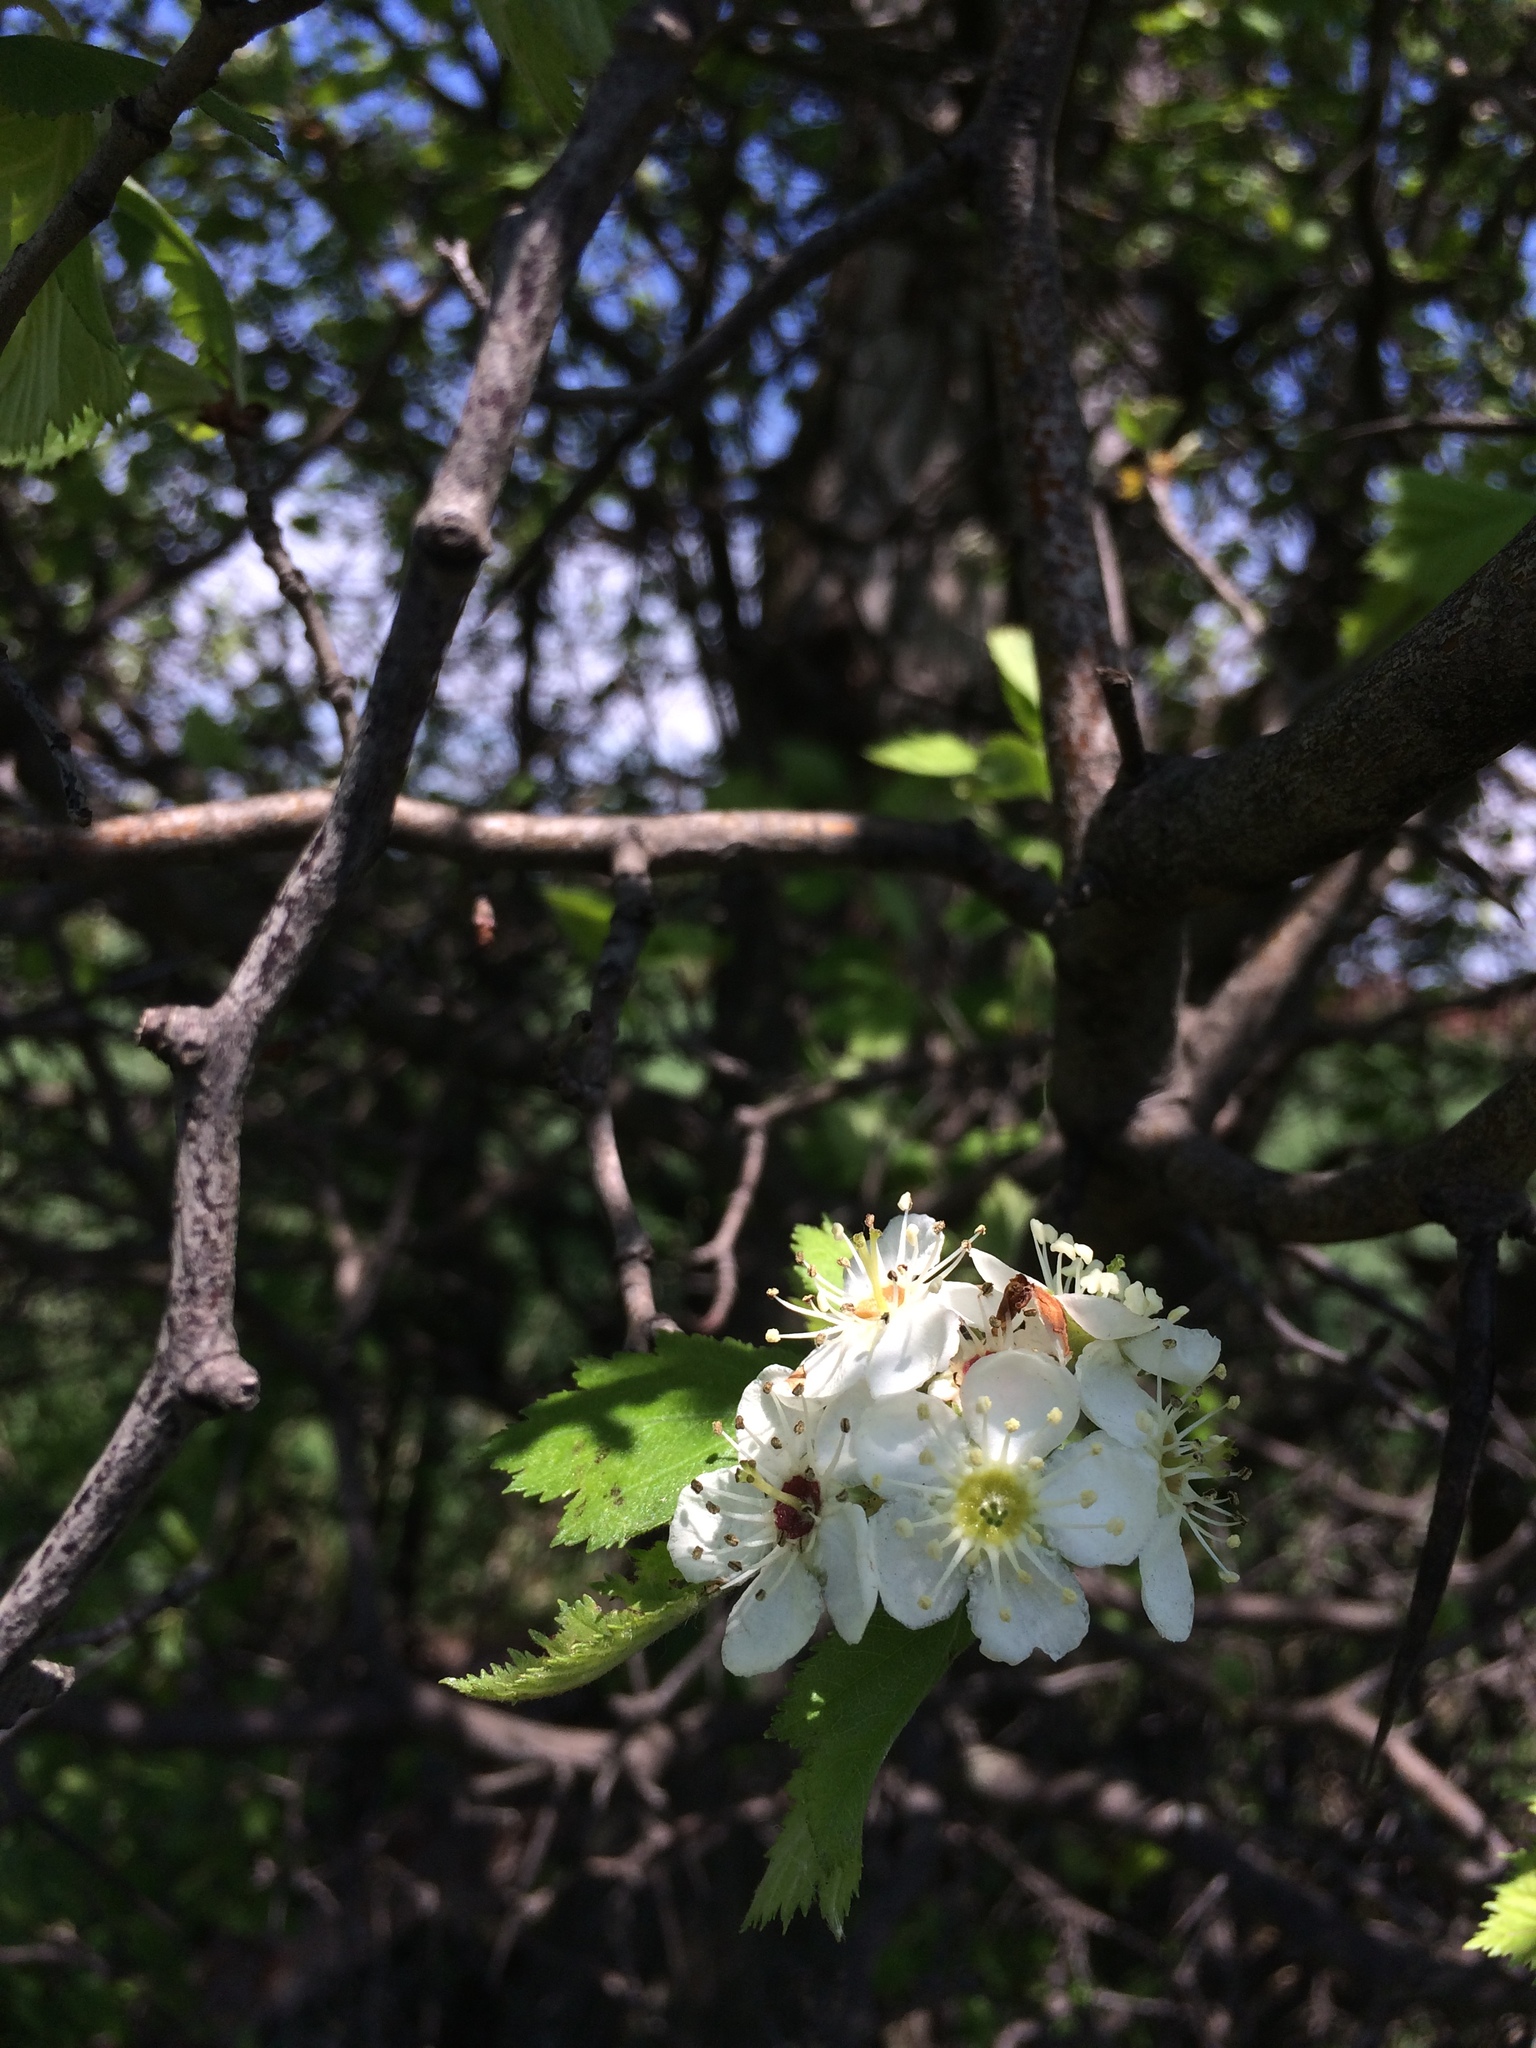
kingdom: Plantae
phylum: Tracheophyta
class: Magnoliopsida
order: Rosales
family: Rosaceae
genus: Crataegus
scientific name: Crataegus submollis
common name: Hairy cockspurthorn
